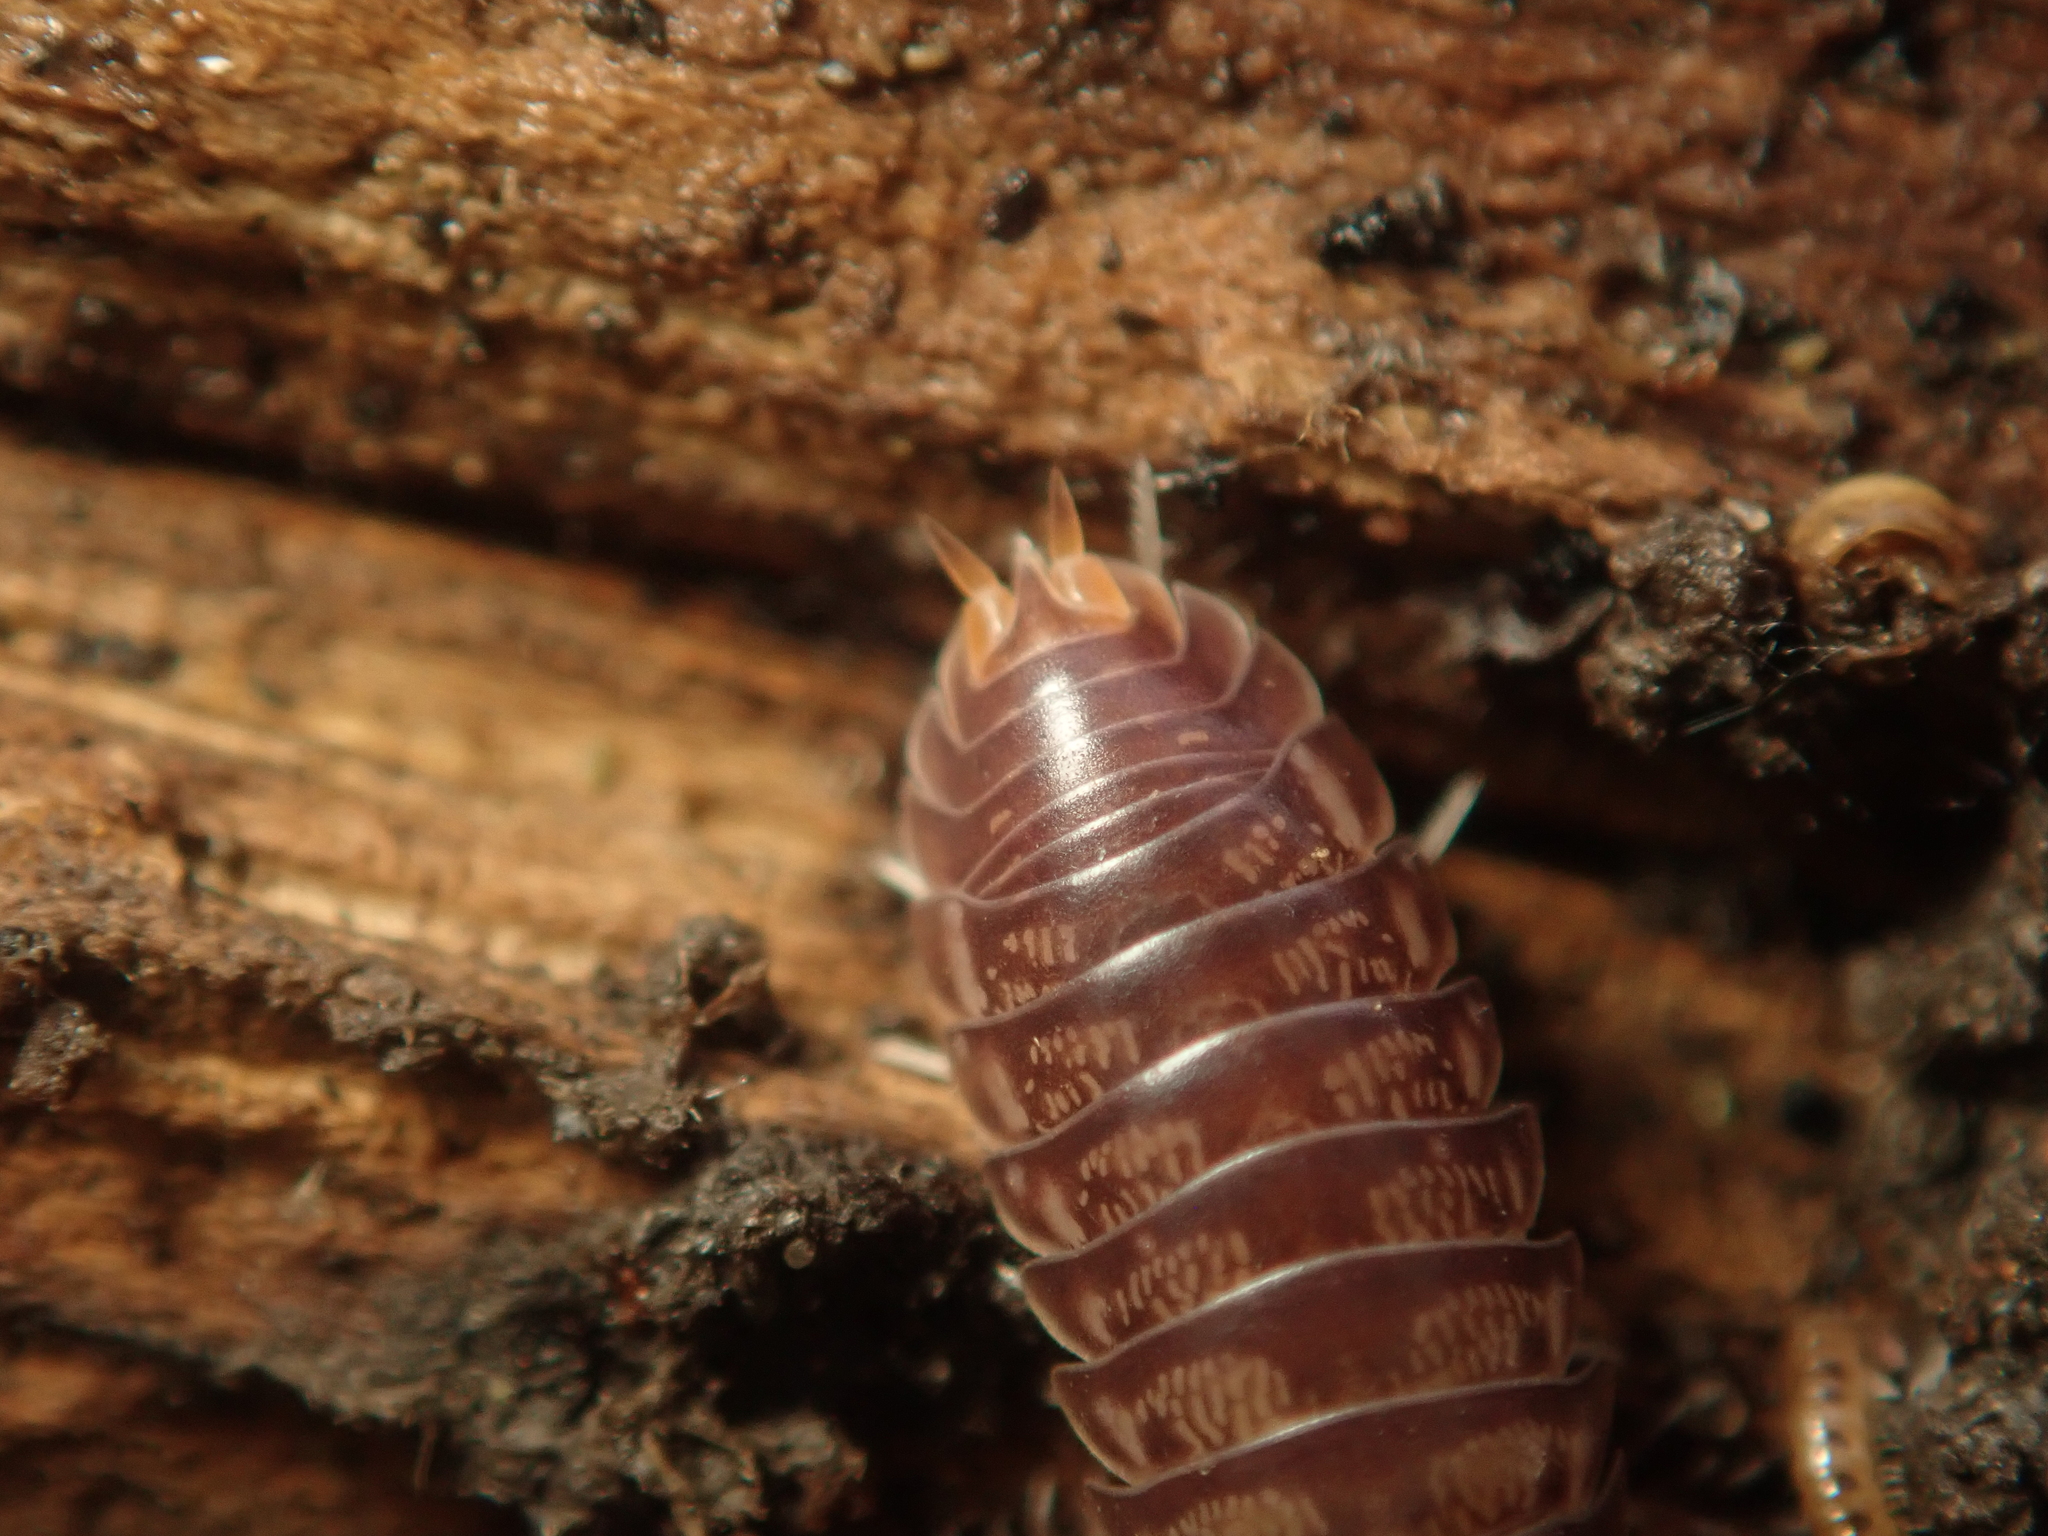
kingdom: Animalia
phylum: Arthropoda
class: Malacostraca
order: Isopoda
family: Cylisticidae
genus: Cylisticus
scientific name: Cylisticus convexus
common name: Curly woodlouse
